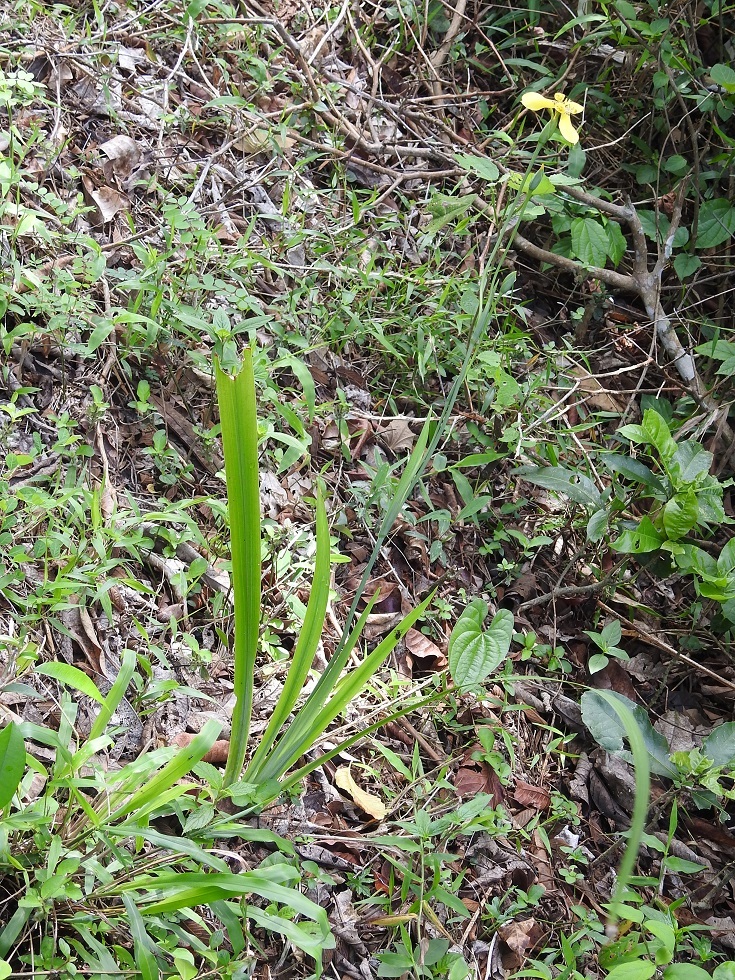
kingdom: Plantae
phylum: Tracheophyta
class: Liliopsida
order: Asparagales
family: Iridaceae
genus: Trimezia
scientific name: Trimezia steyermarkii
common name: Trimezia
